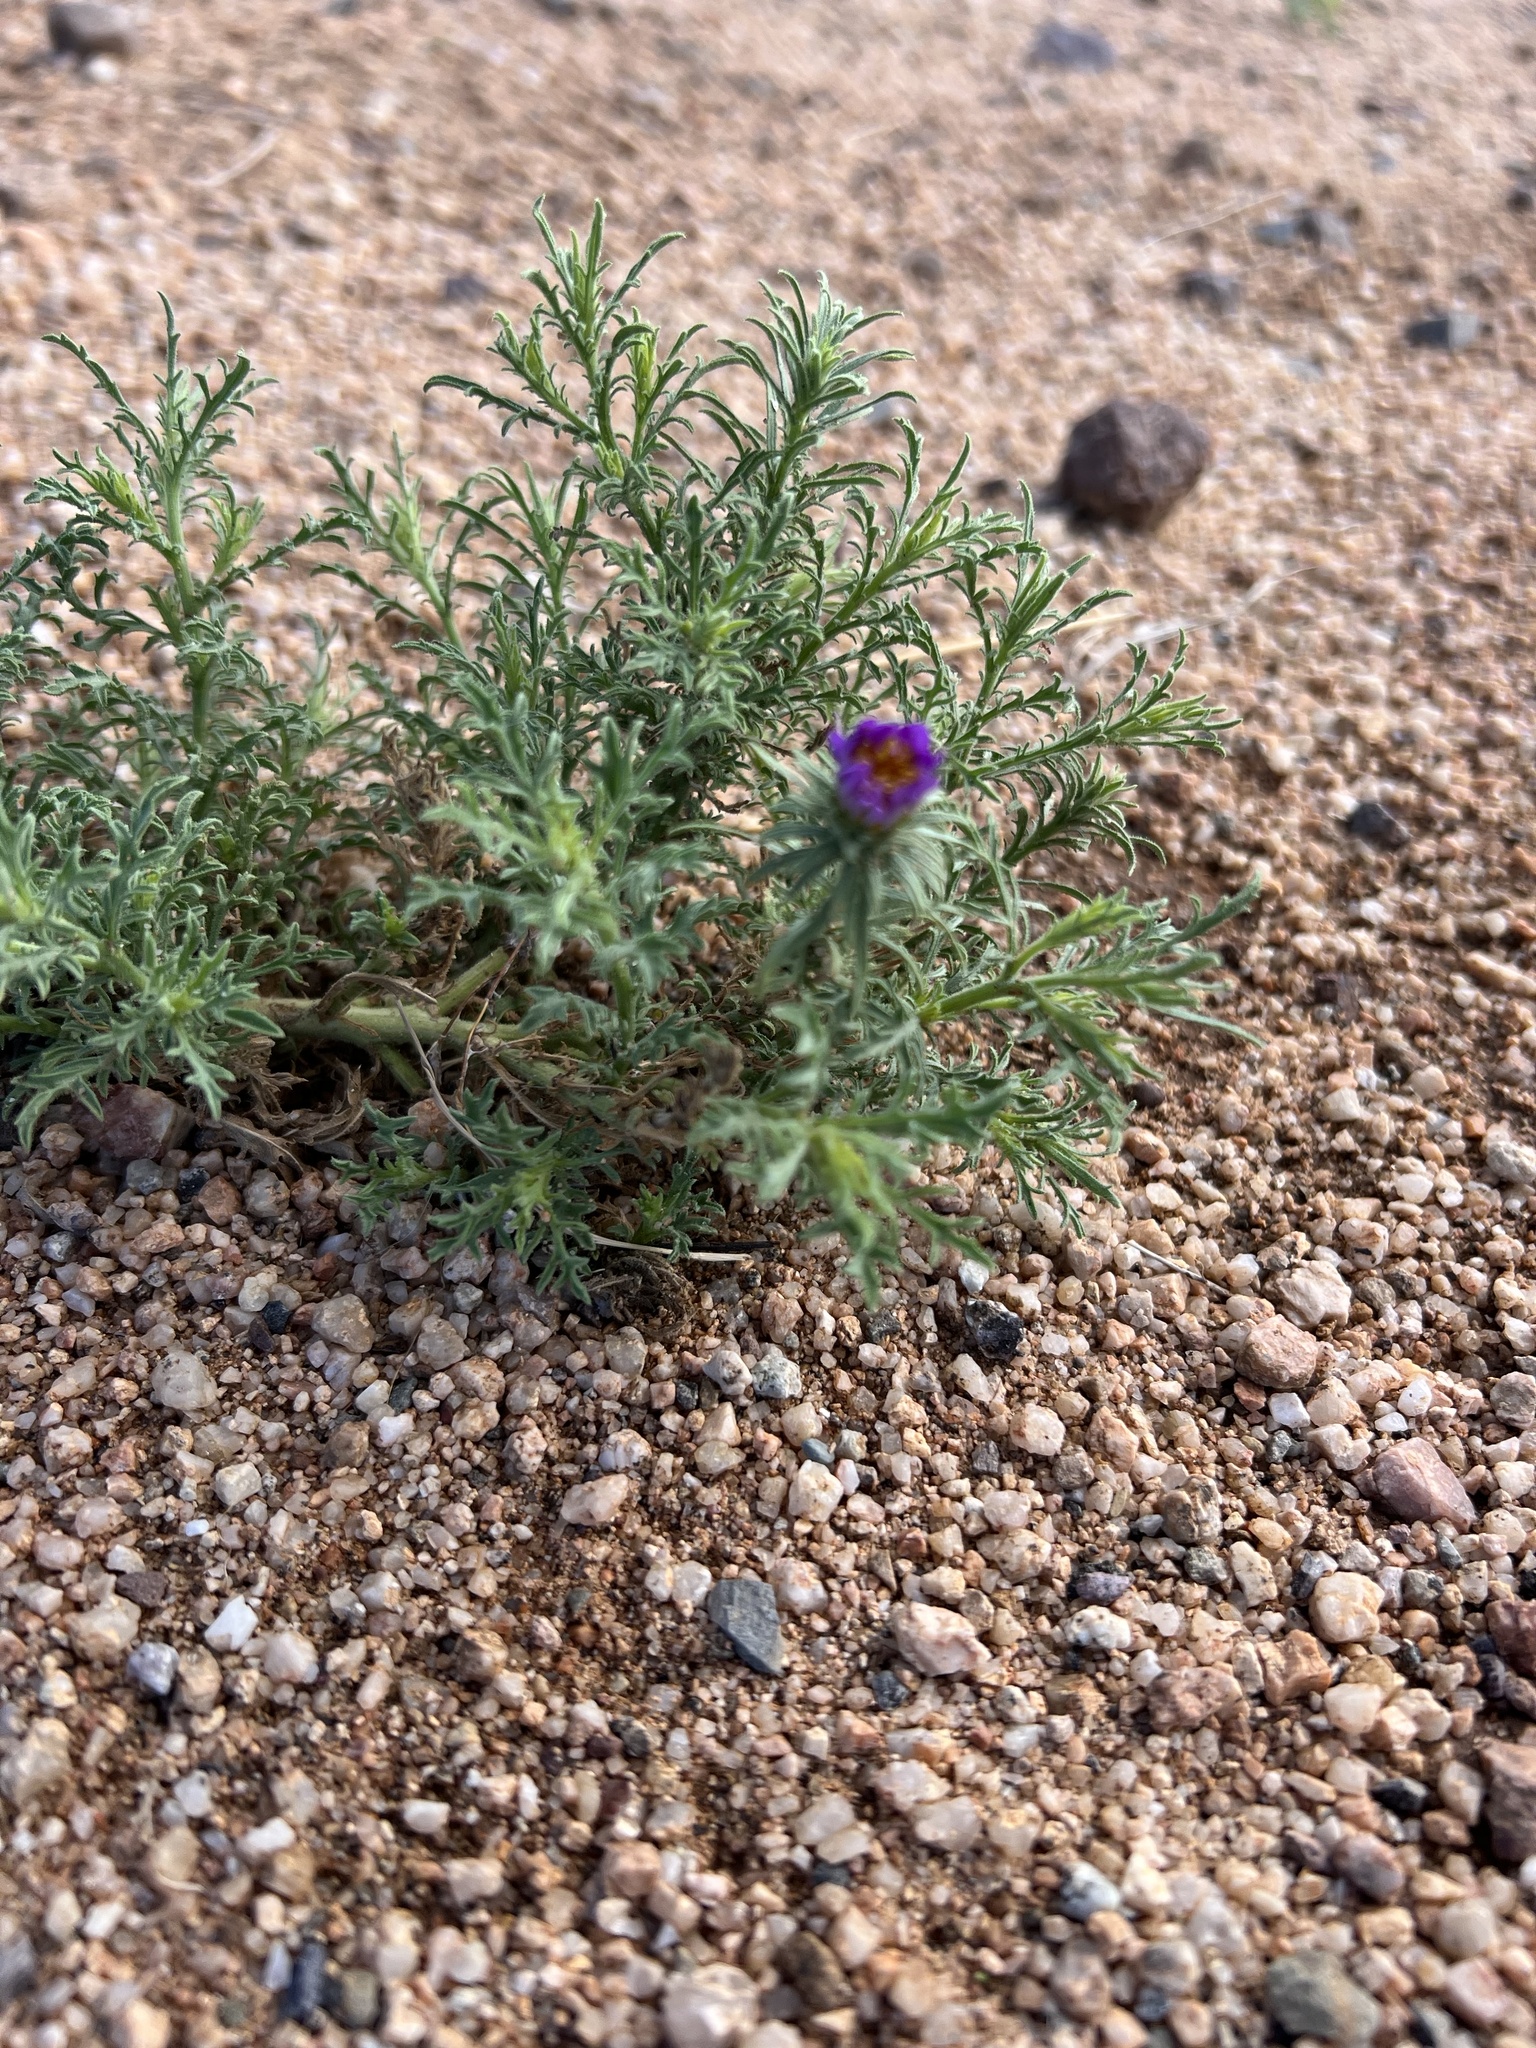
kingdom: Plantae
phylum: Tracheophyta
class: Magnoliopsida
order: Asterales
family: Asteraceae
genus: Machaeranthera
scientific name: Machaeranthera tagetina
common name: Mesa tansy-aster
